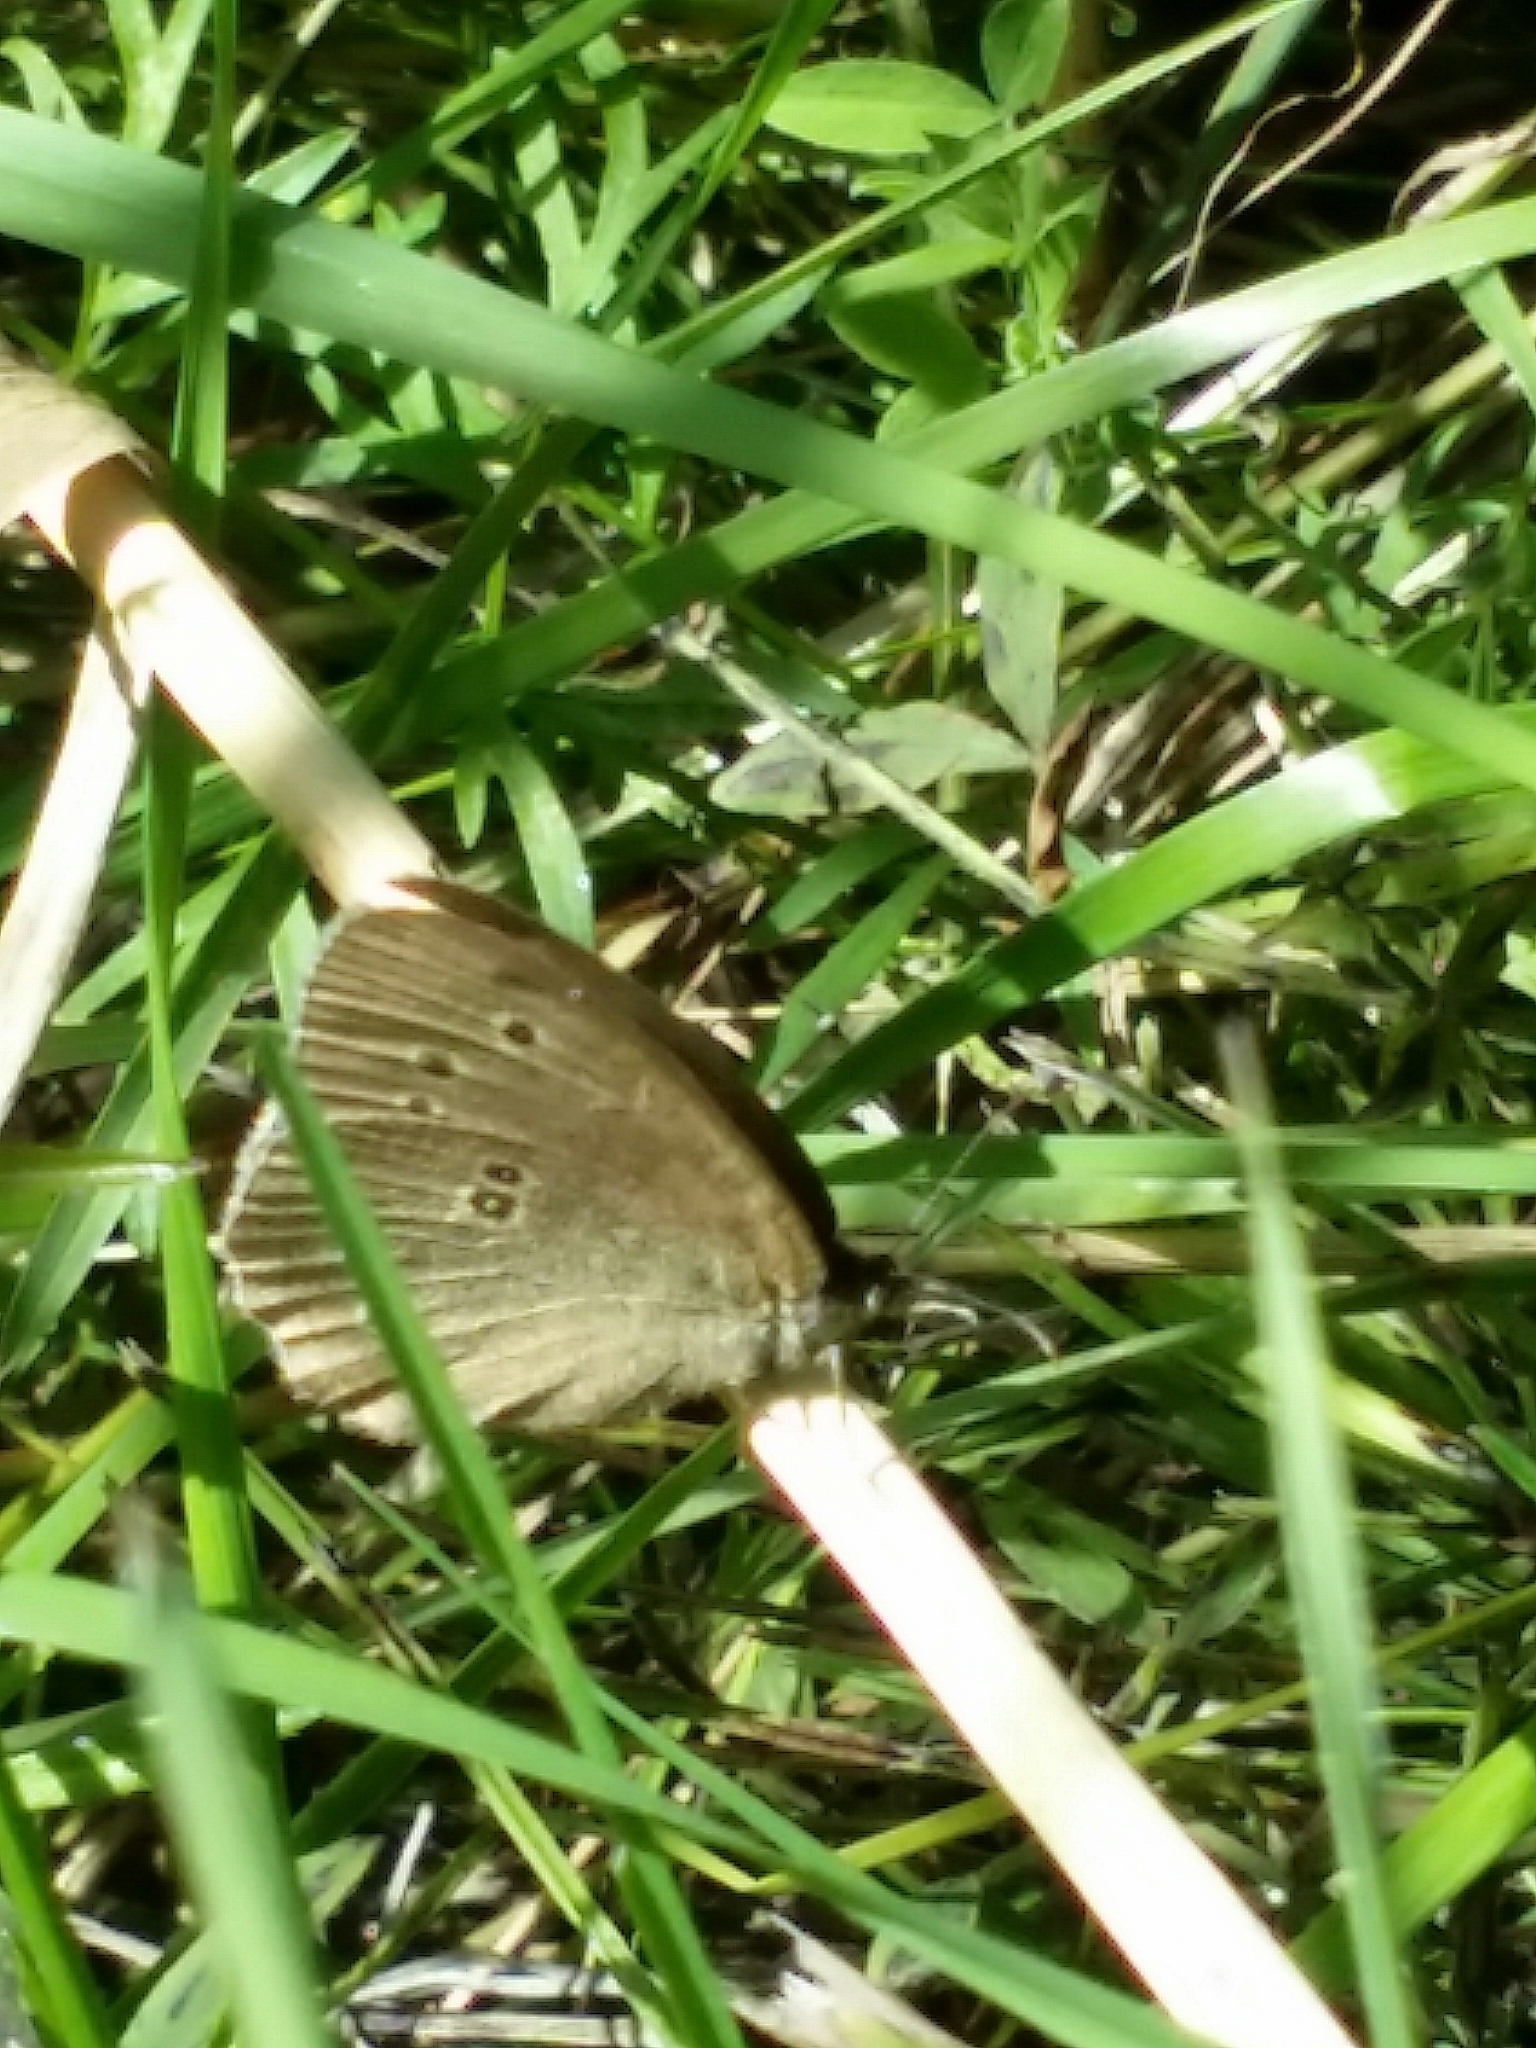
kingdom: Animalia
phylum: Arthropoda
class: Insecta
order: Lepidoptera
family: Nymphalidae
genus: Aphantopus
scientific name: Aphantopus hyperantus
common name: Ringlet
